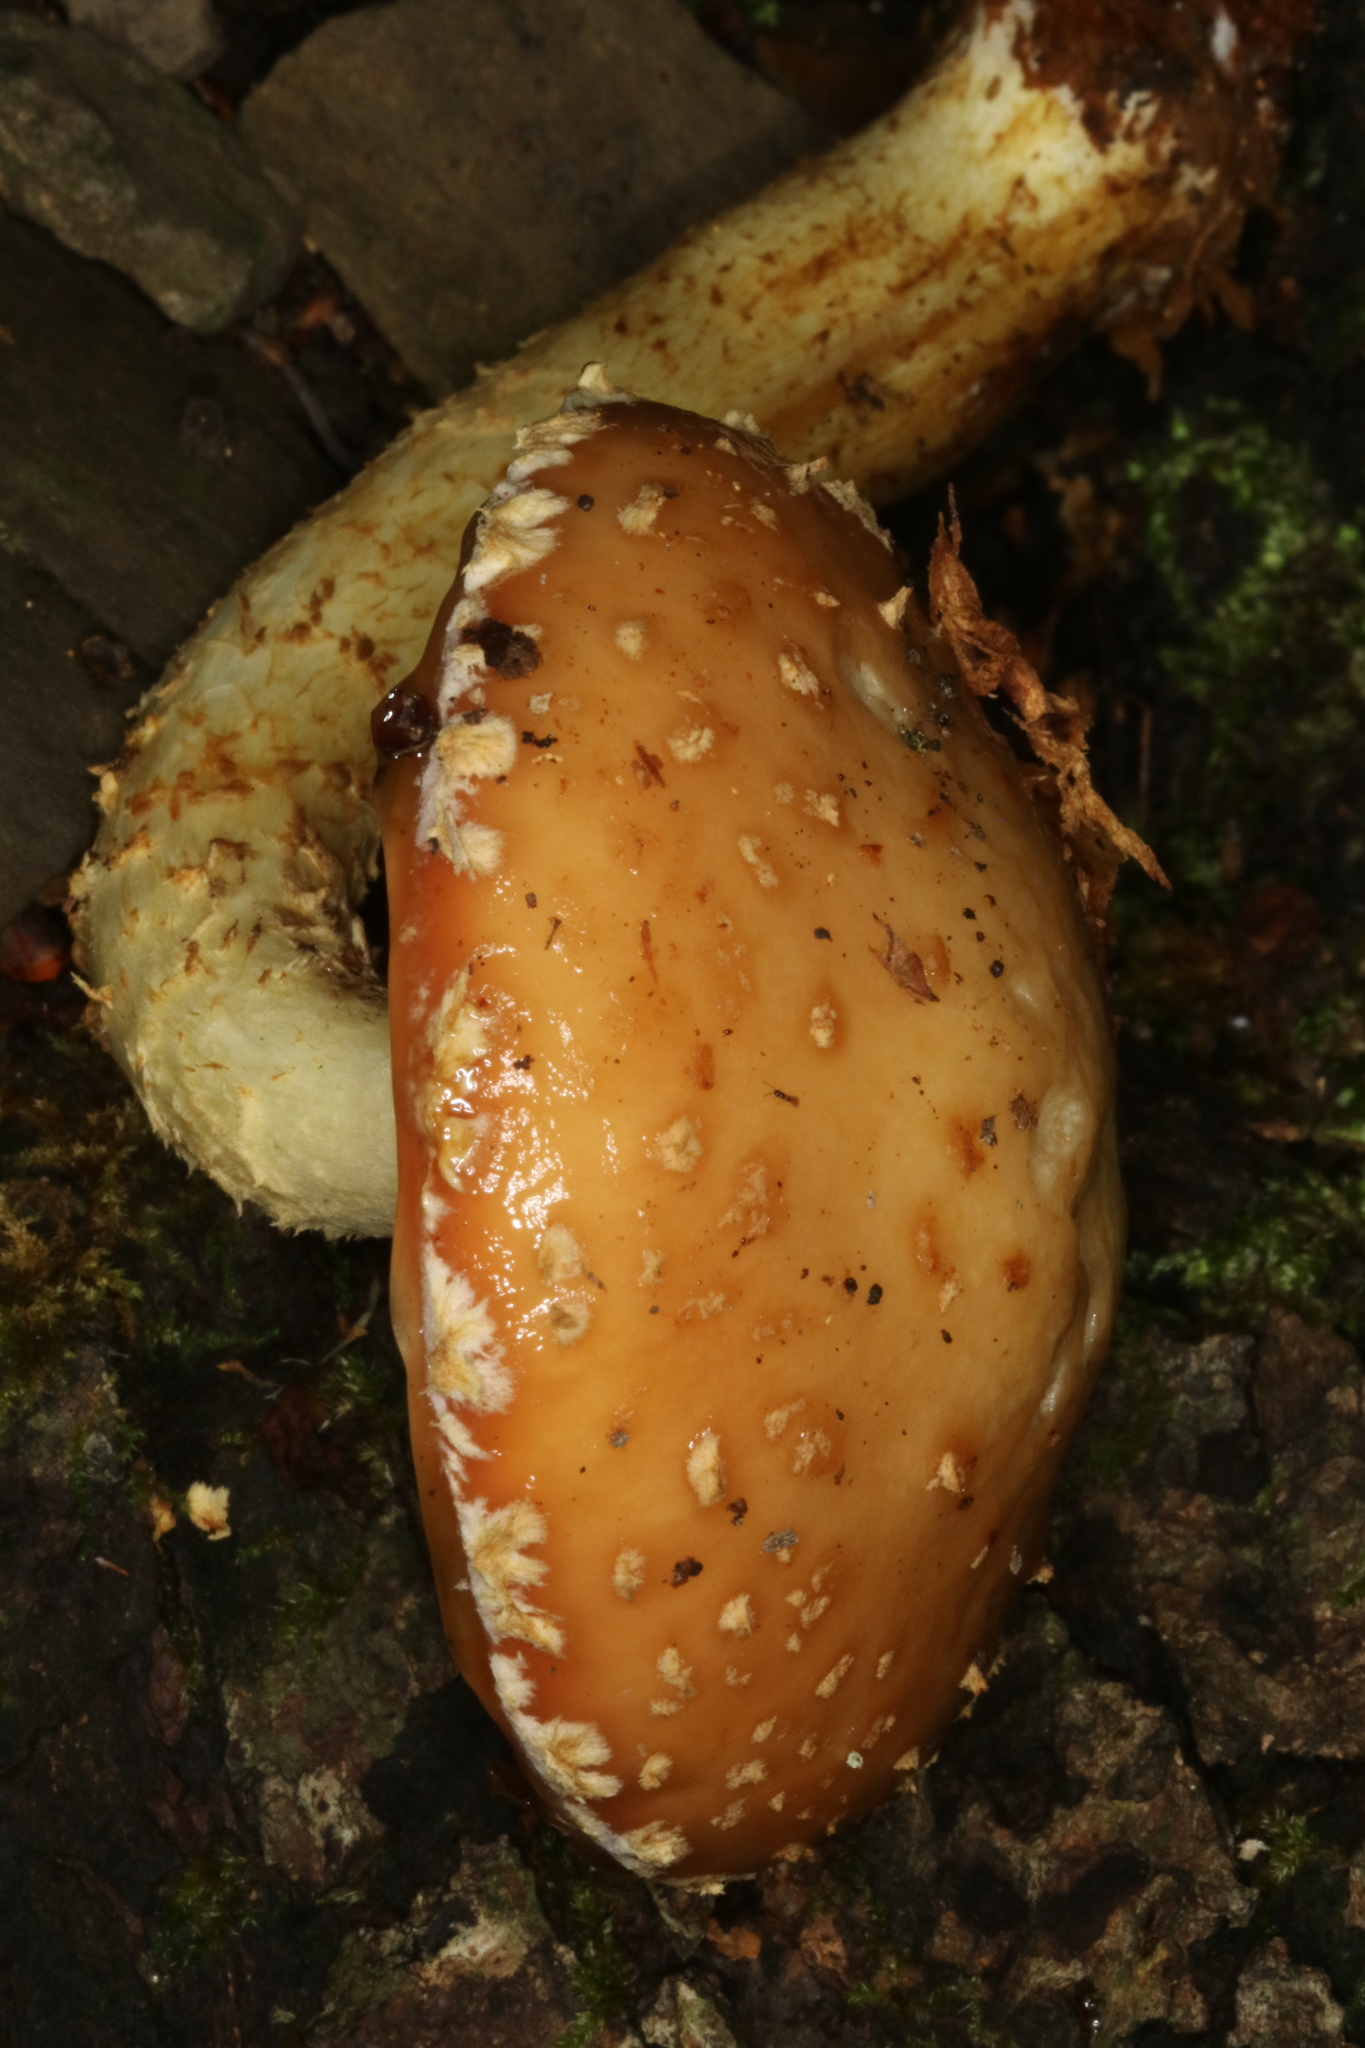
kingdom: Fungi
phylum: Basidiomycota
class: Agaricomycetes
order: Agaricales
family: Tubariaceae
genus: Hemistropharia
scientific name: Hemistropharia albocrenulata
